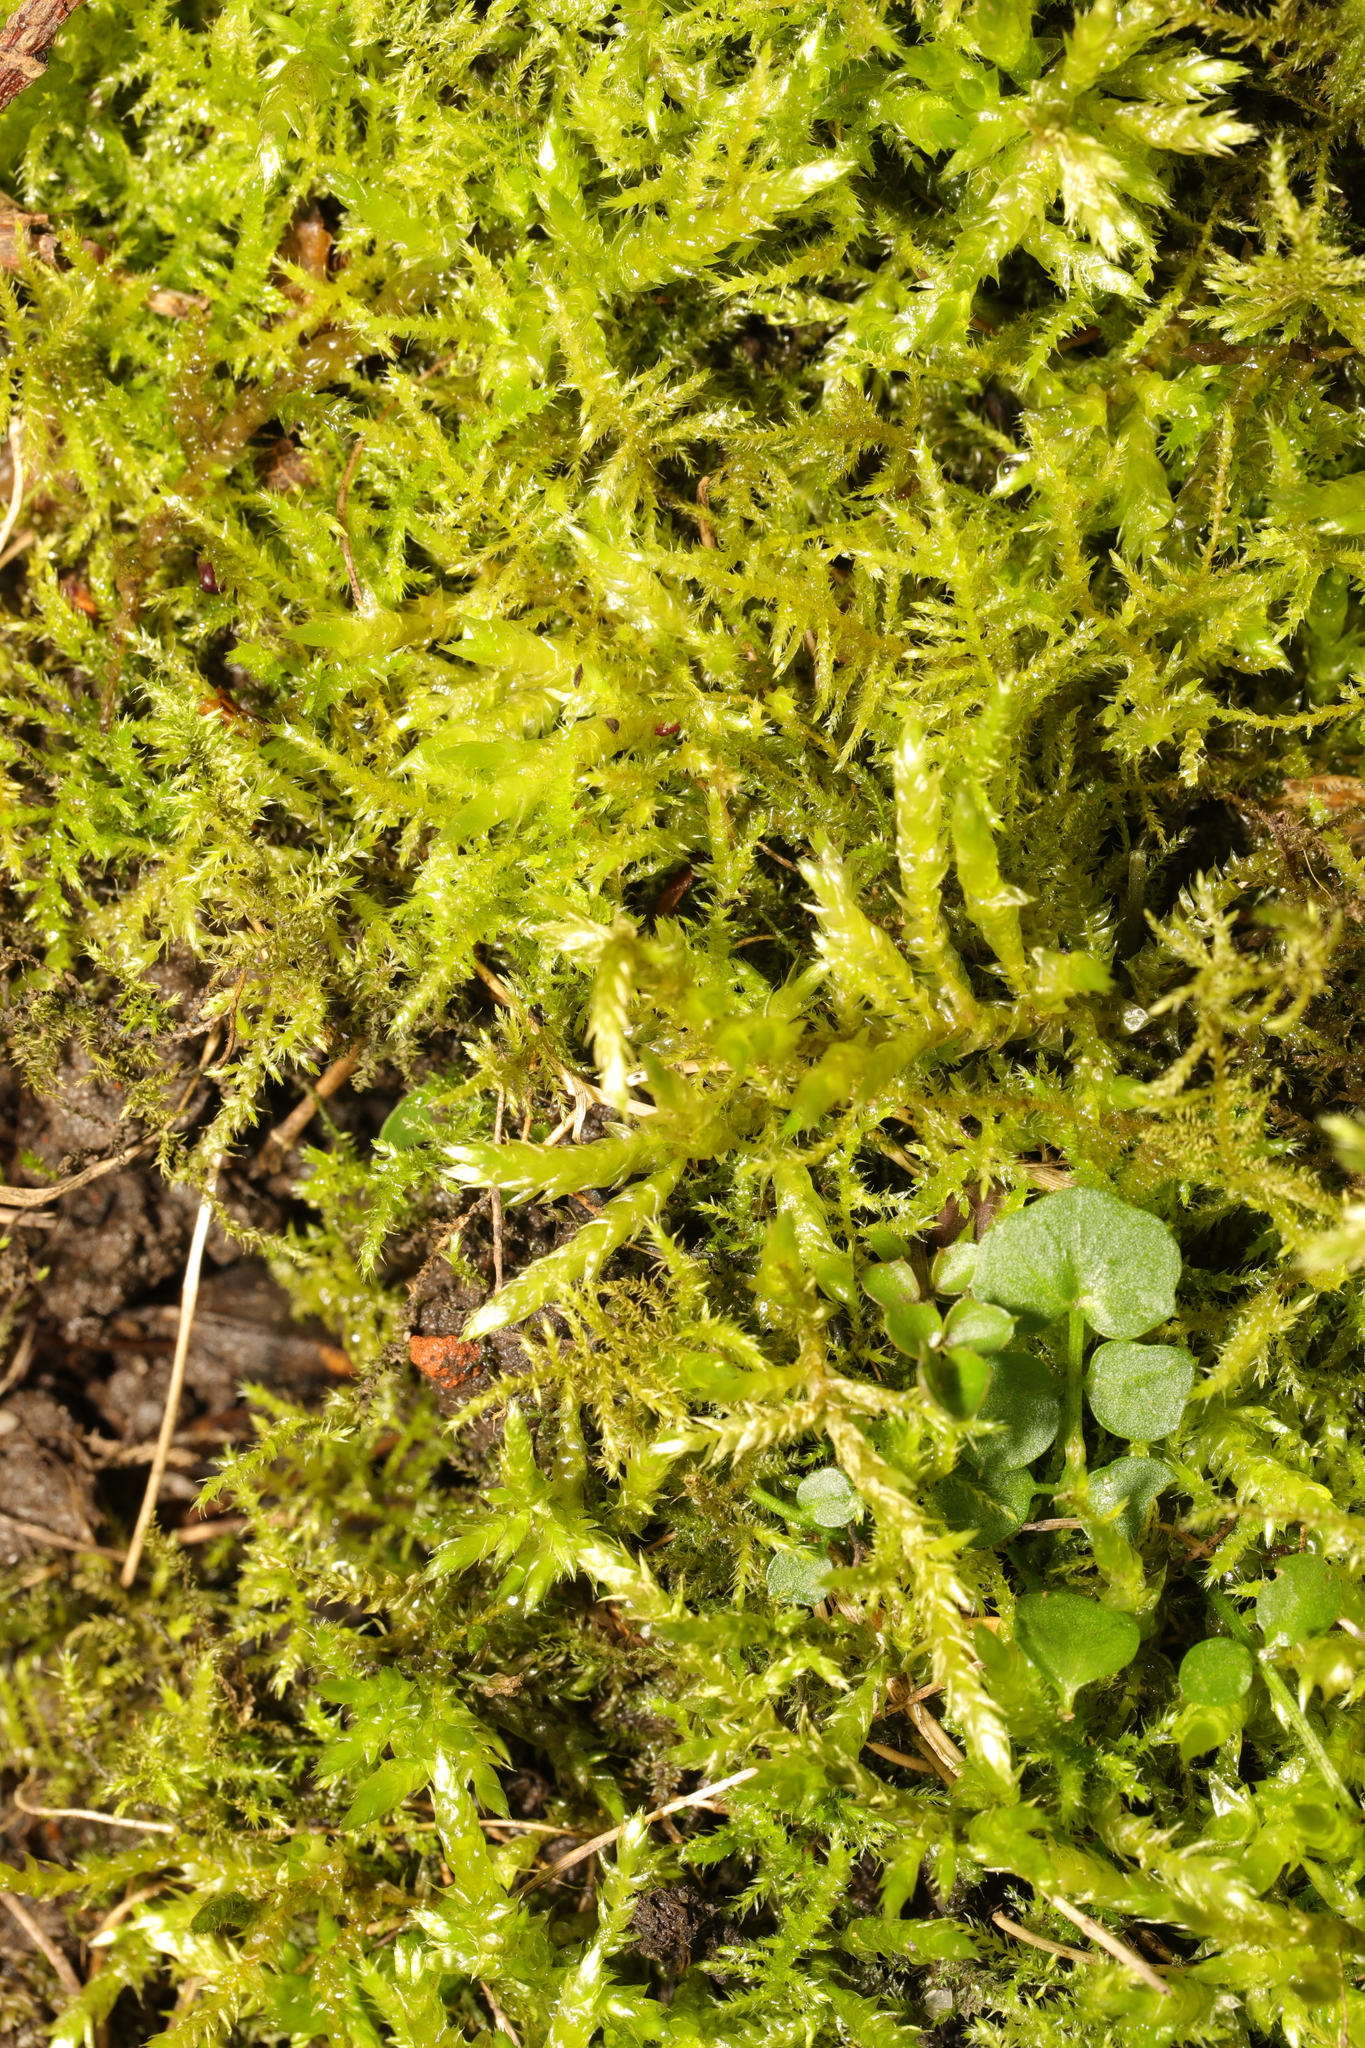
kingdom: Plantae
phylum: Bryophyta
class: Bryopsida
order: Hypnales
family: Brachytheciaceae
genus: Kindbergia
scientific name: Kindbergia praelonga
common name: Slender beaked moss
